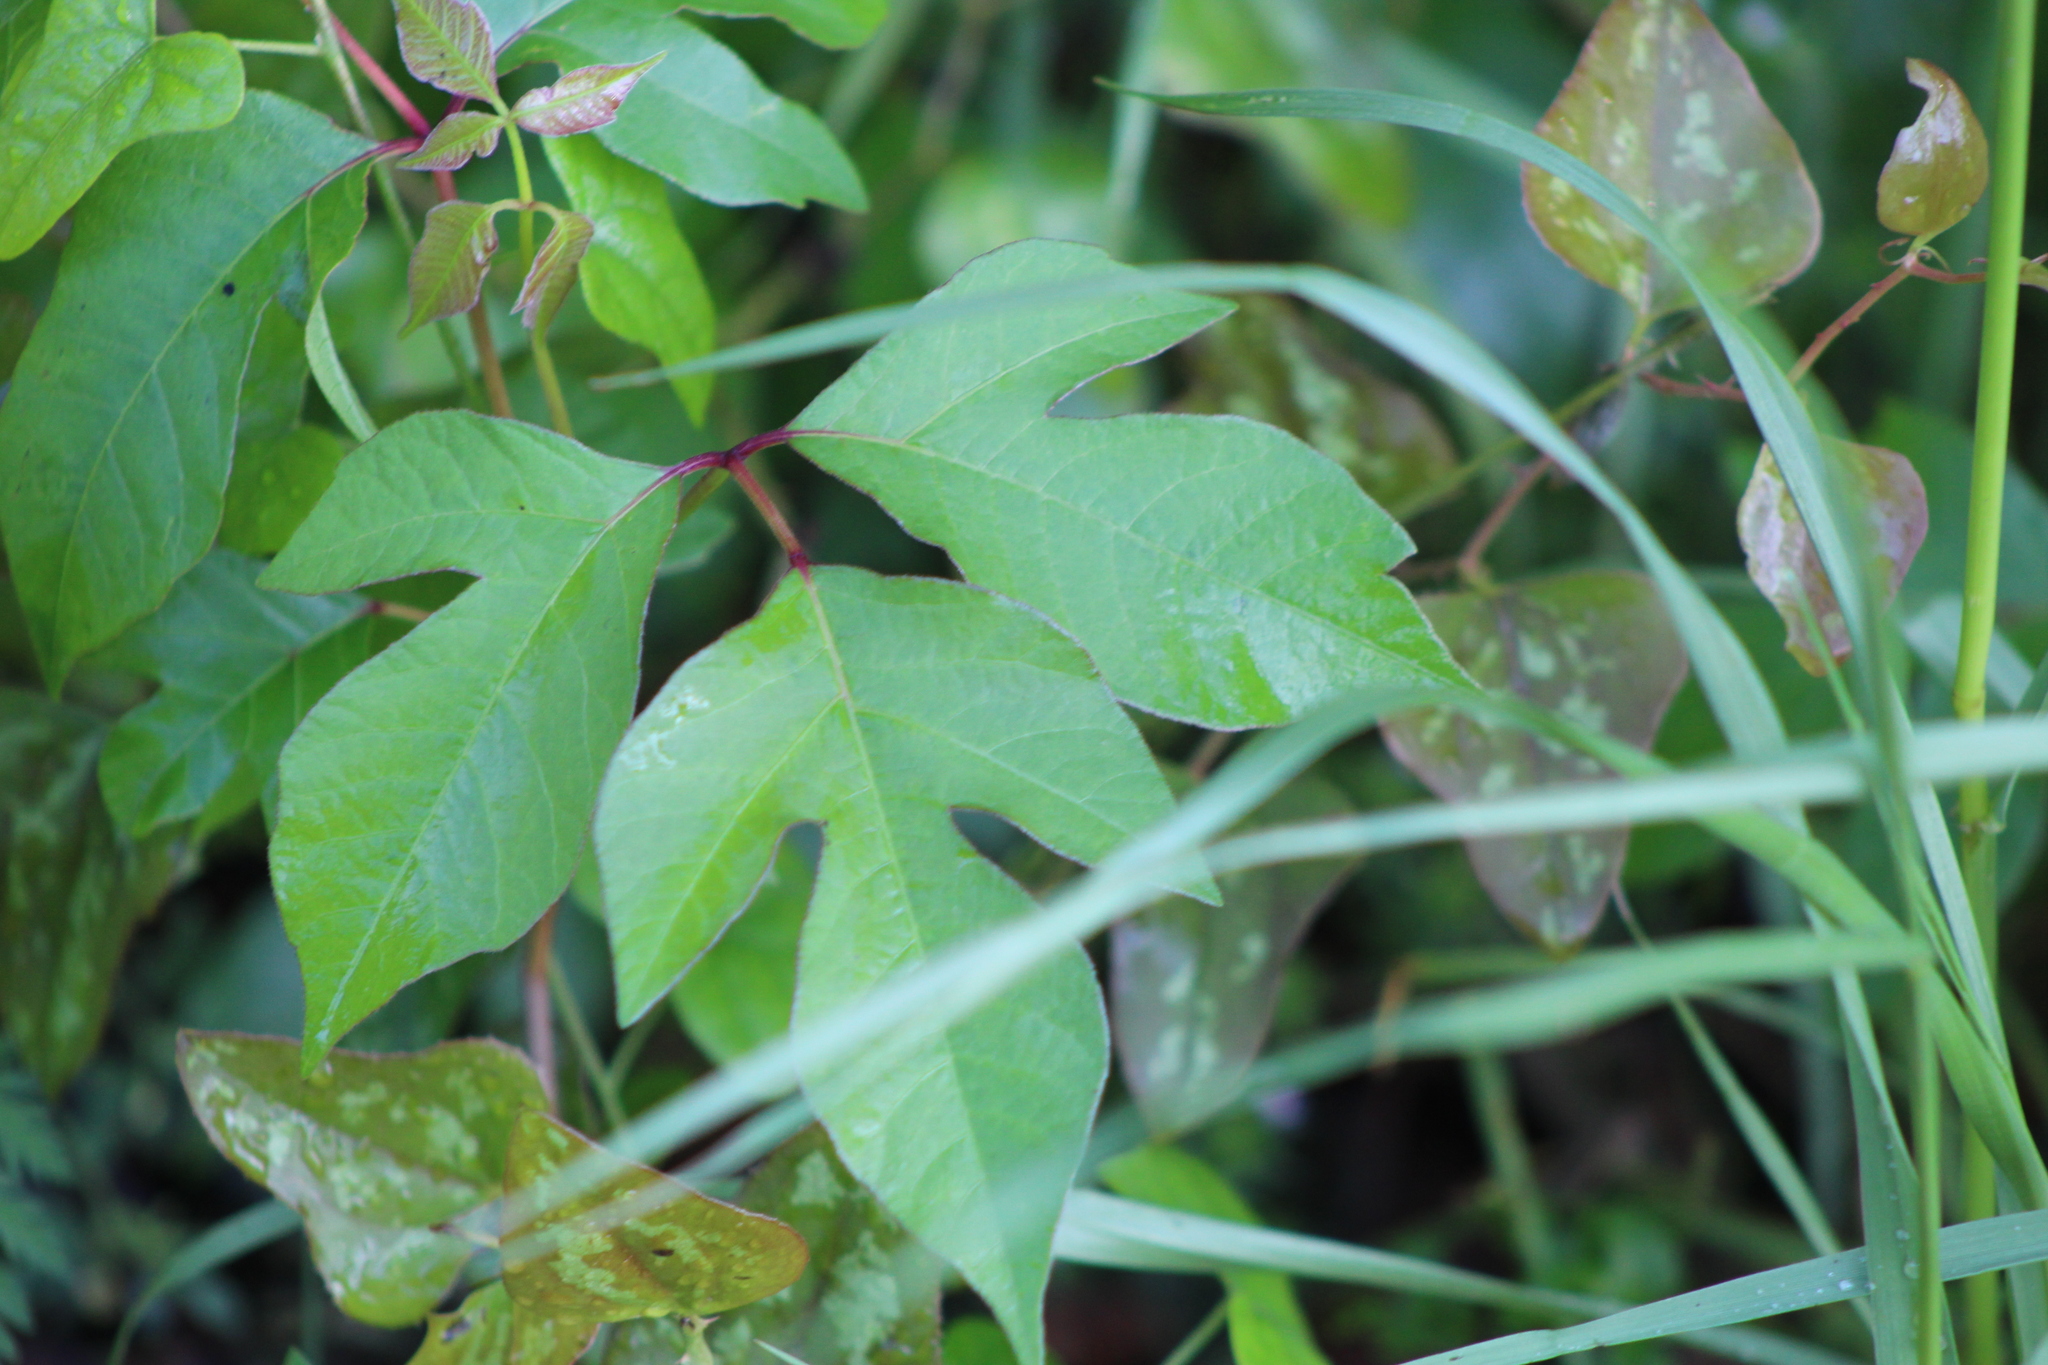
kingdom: Plantae
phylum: Tracheophyta
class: Magnoliopsida
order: Sapindales
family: Anacardiaceae
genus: Toxicodendron
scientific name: Toxicodendron radicans
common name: Poison ivy
